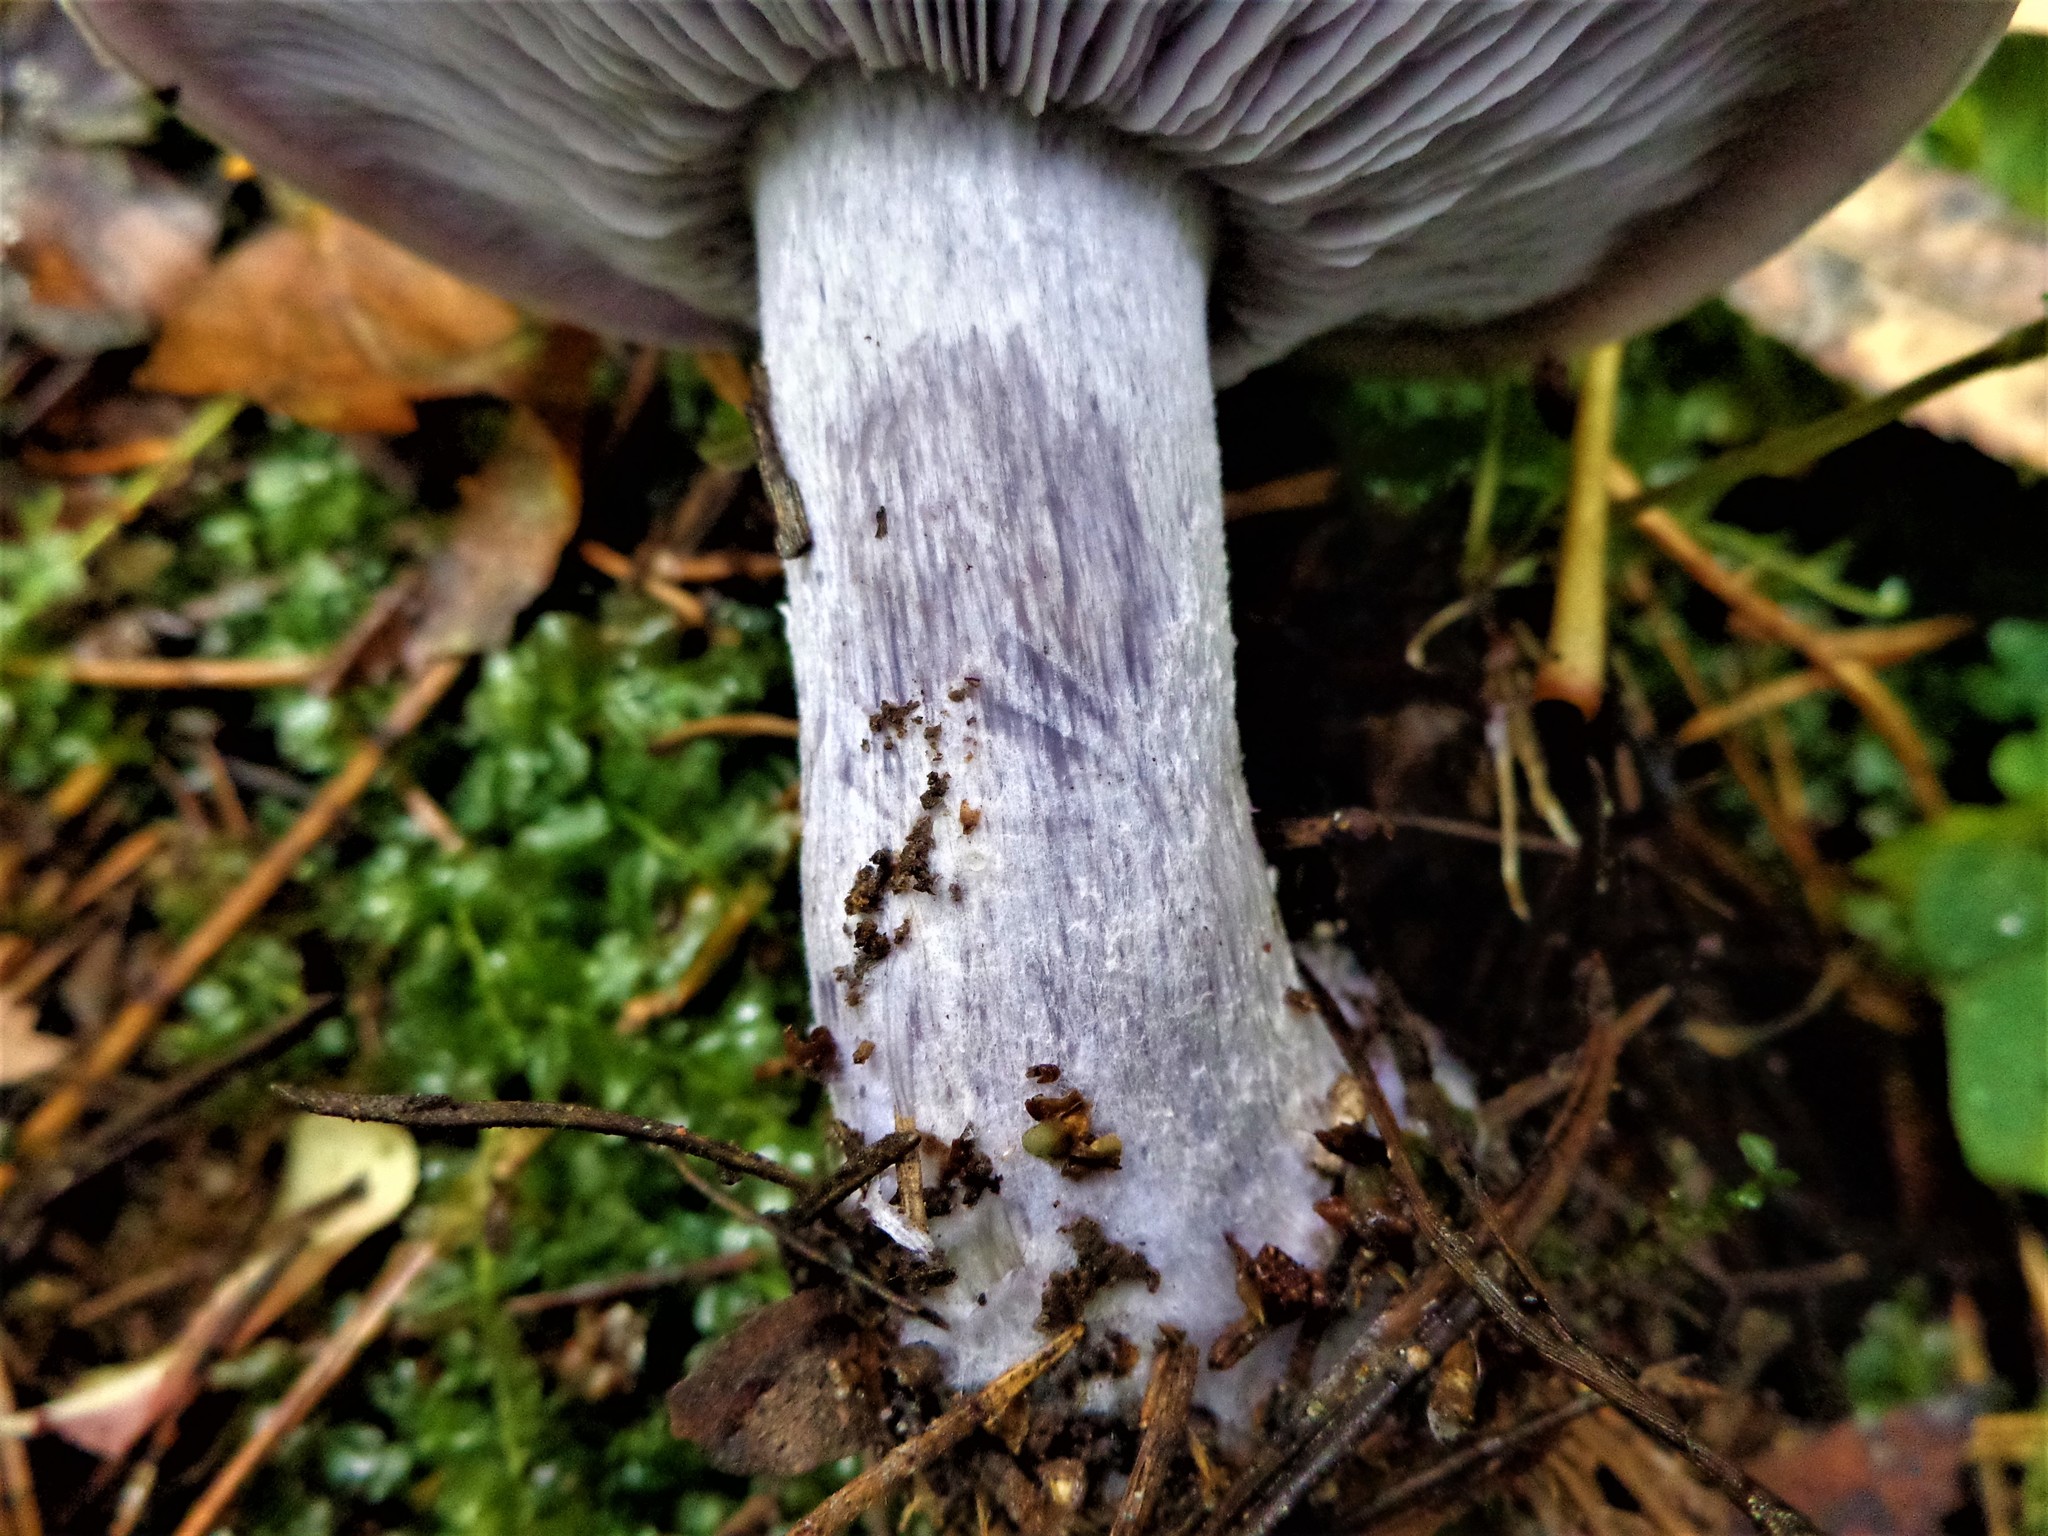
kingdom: Fungi
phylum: Basidiomycota
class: Agaricomycetes
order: Agaricales
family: Tricholomataceae
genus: Collybia
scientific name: Collybia
